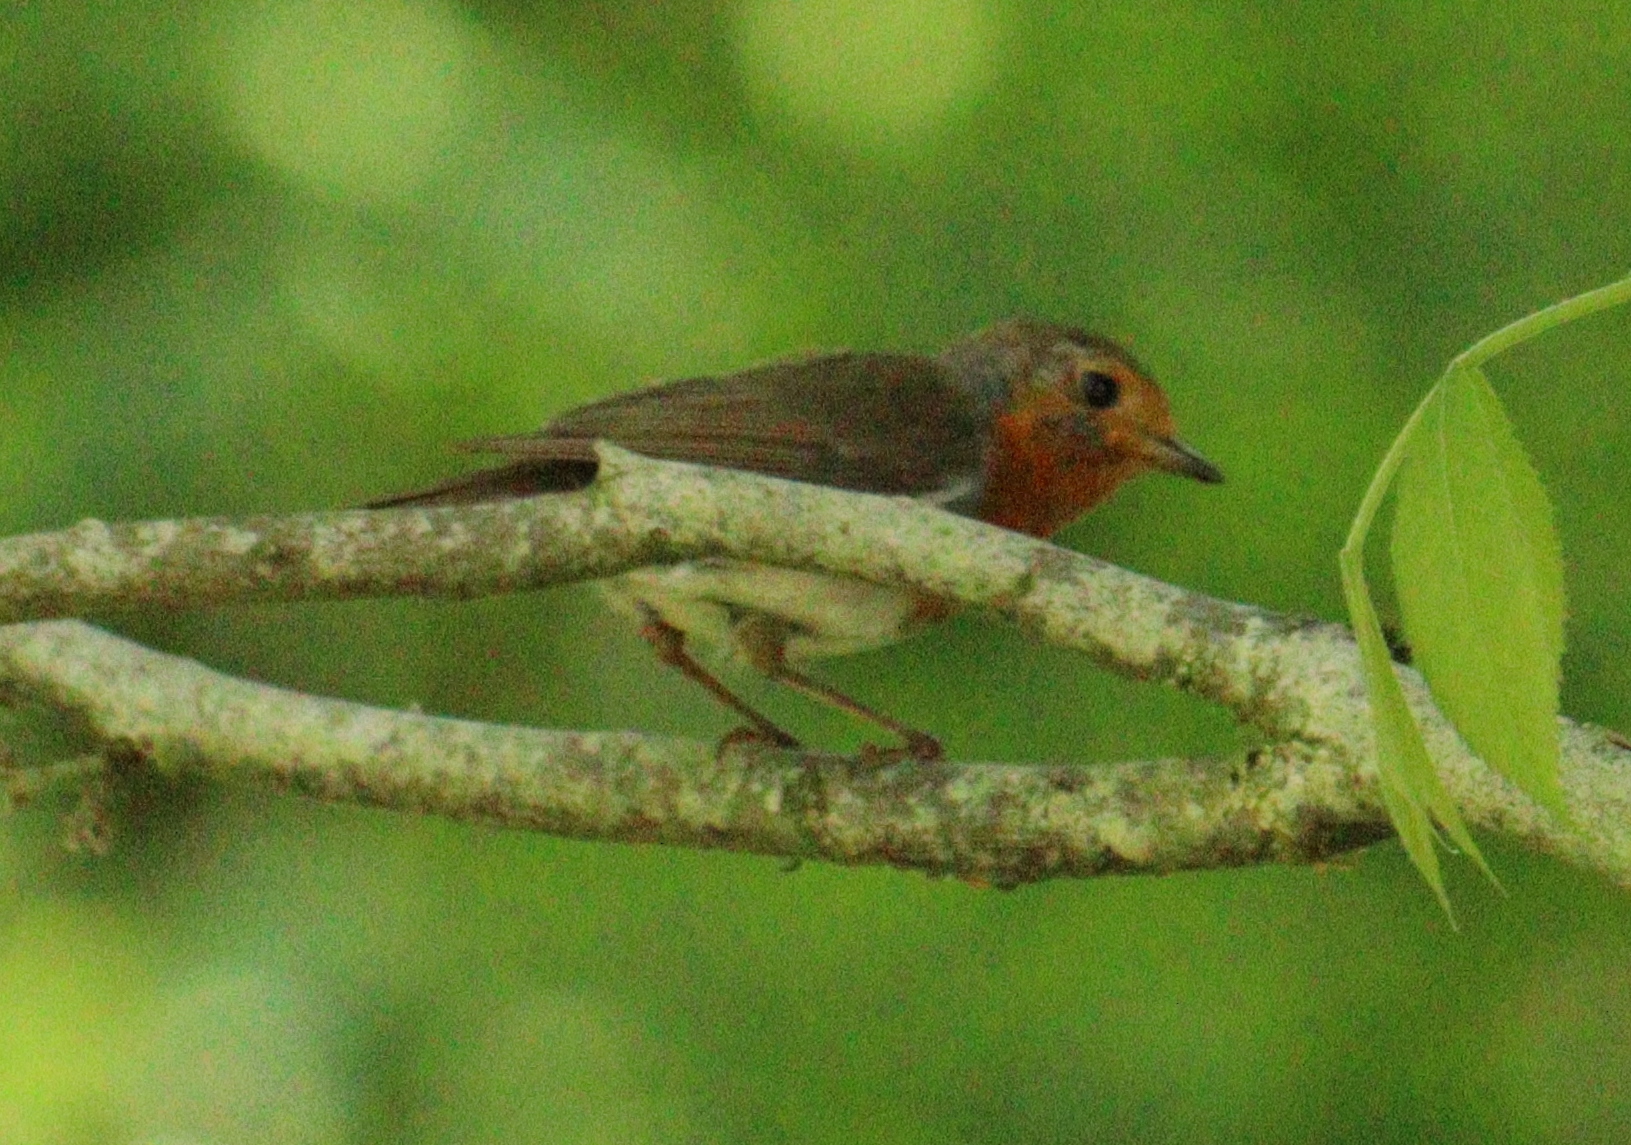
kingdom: Animalia
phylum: Chordata
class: Aves
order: Passeriformes
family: Muscicapidae
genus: Erithacus
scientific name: Erithacus rubecula
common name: European robin
